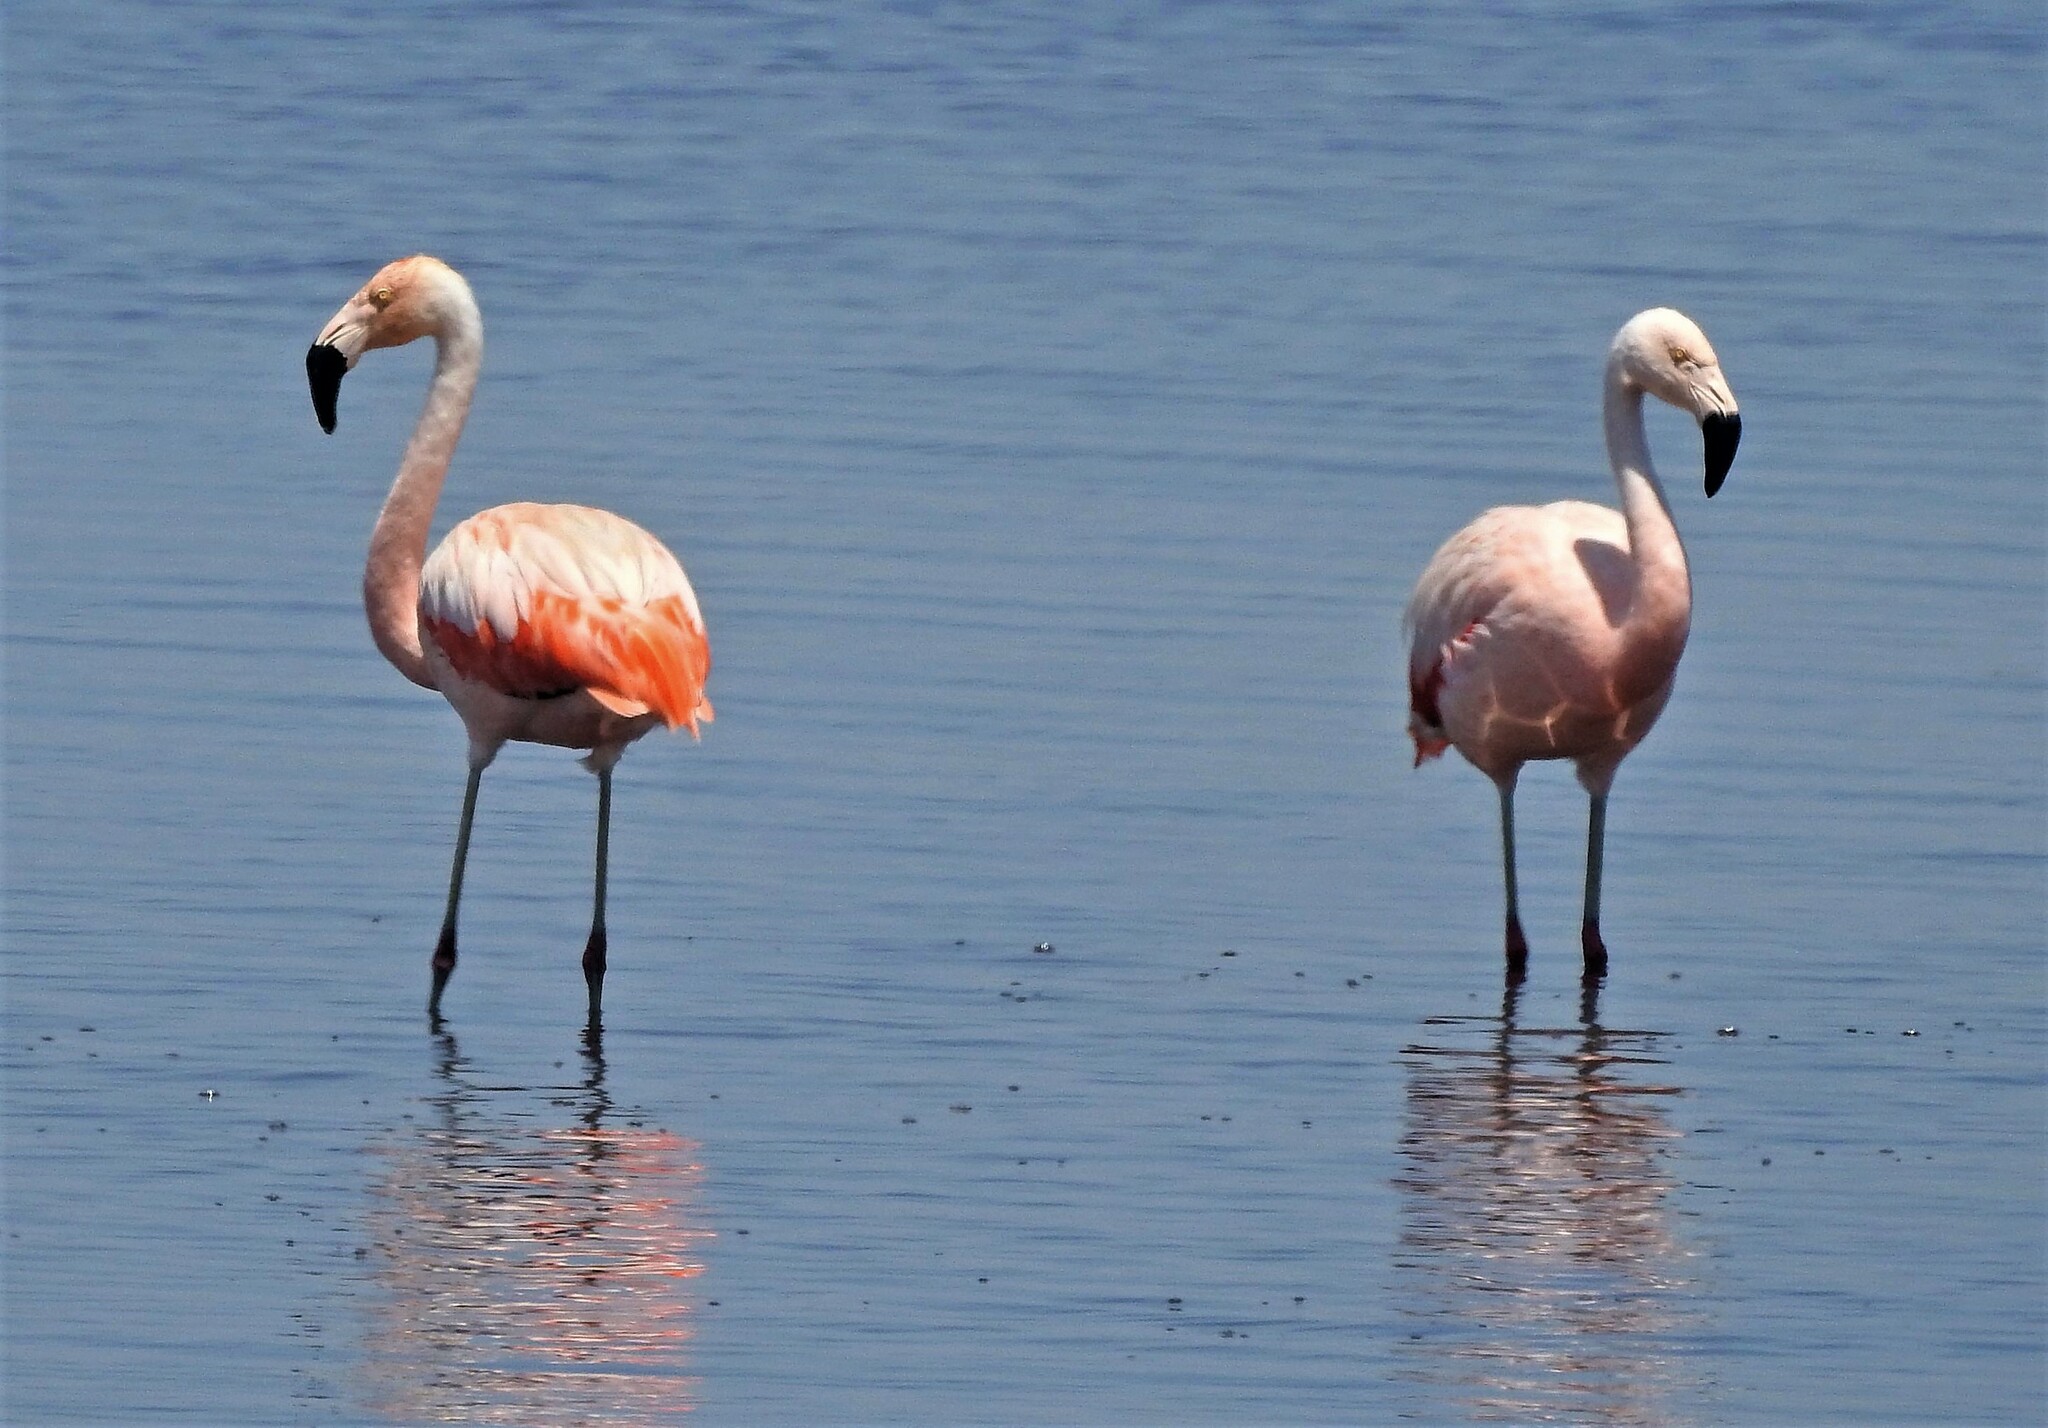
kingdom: Animalia
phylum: Chordata
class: Aves
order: Phoenicopteriformes
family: Phoenicopteridae
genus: Phoenicopterus
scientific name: Phoenicopterus chilensis
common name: Chilean flamingo
